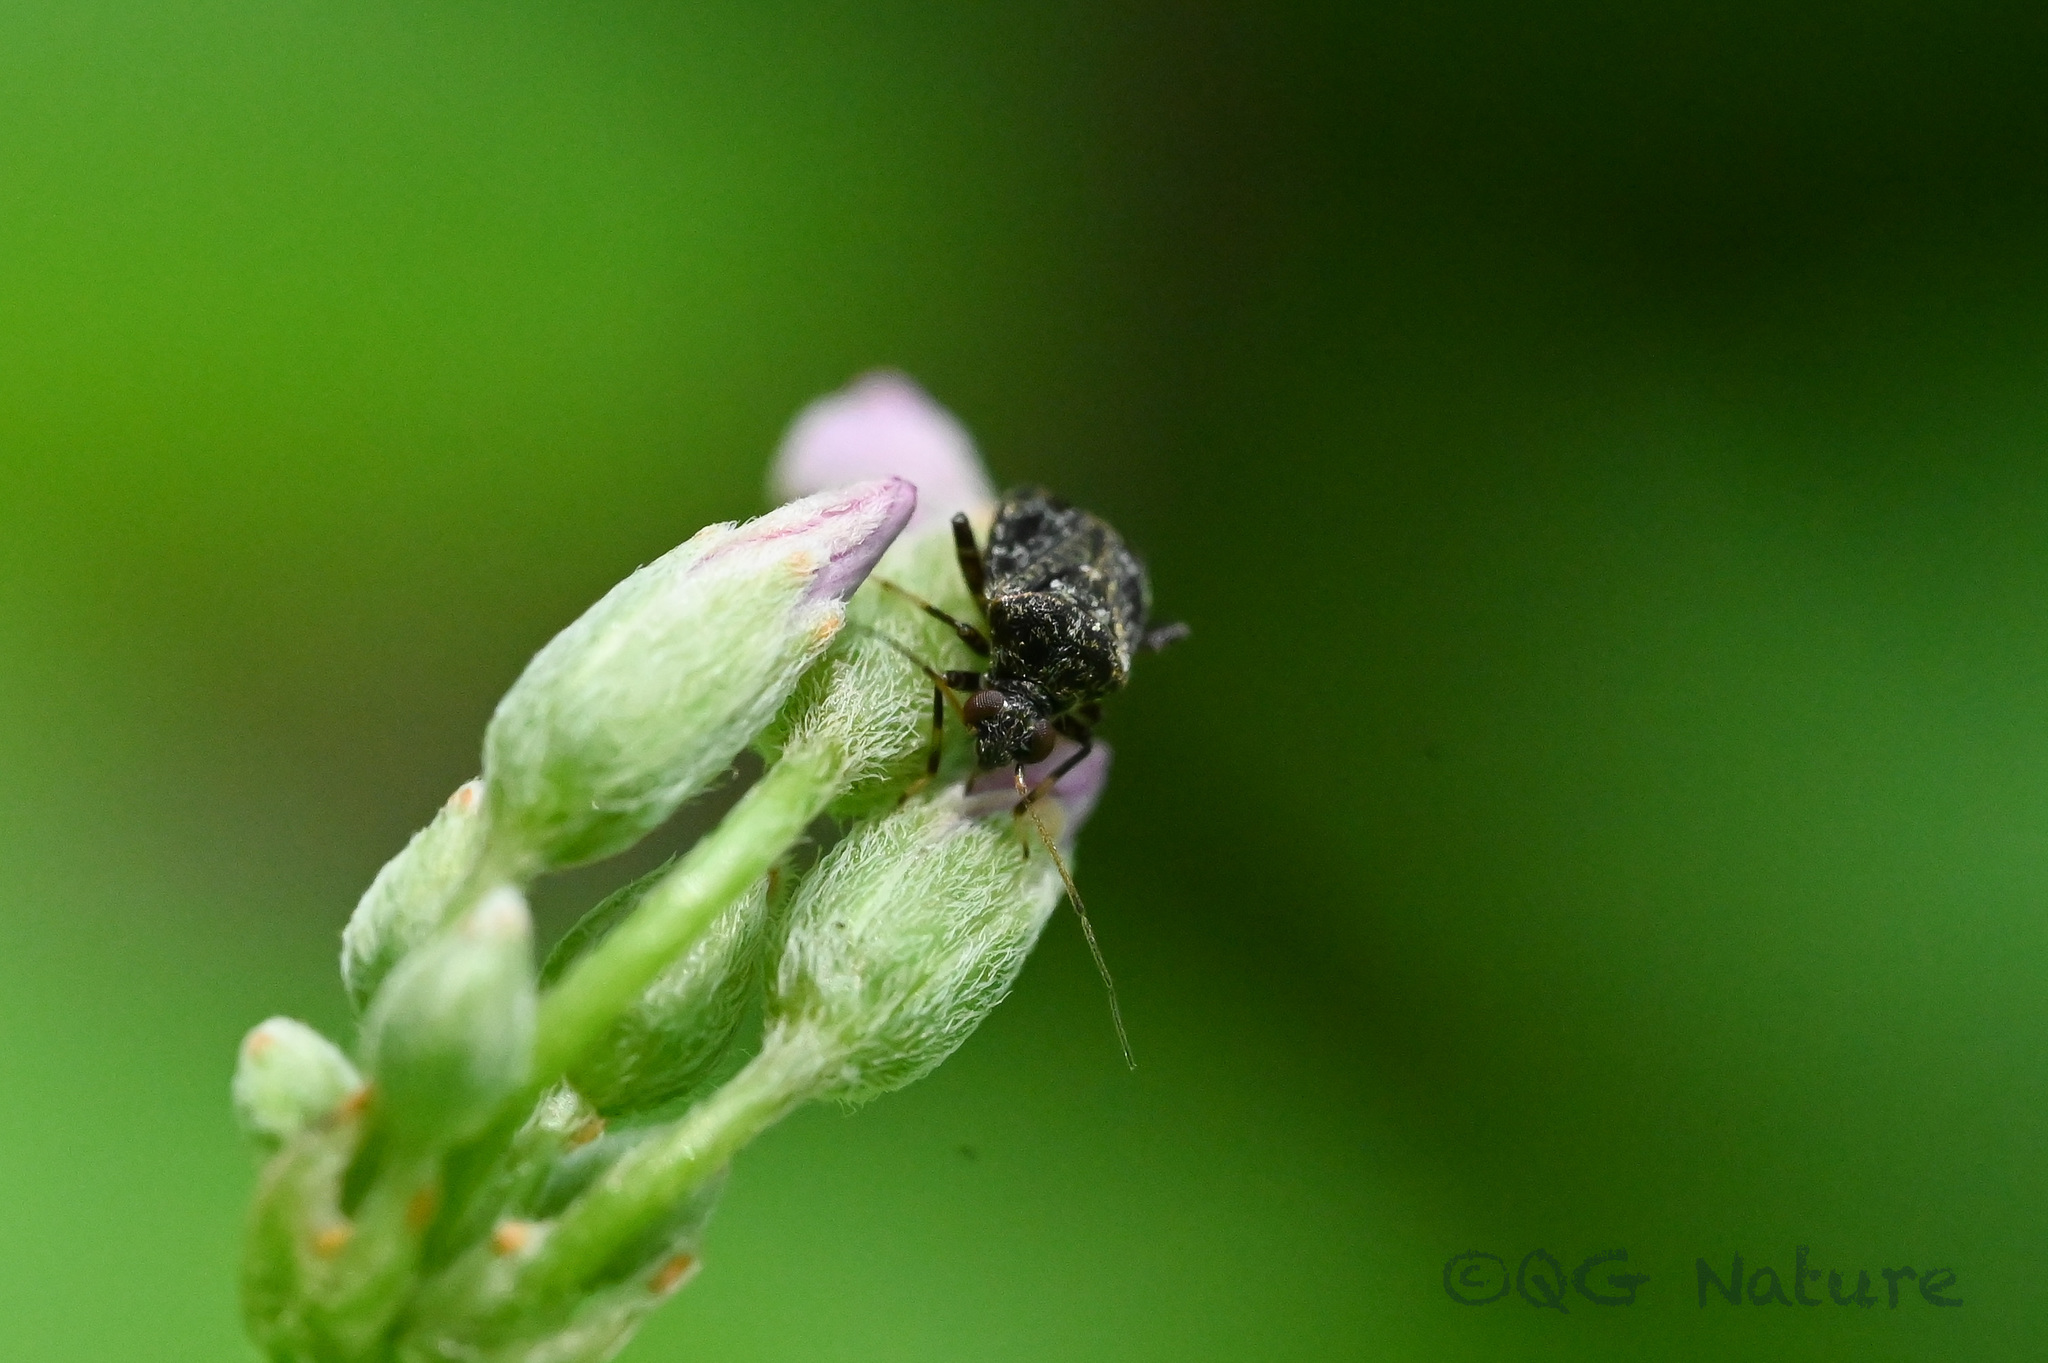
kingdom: Animalia
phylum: Arthropoda
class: Insecta
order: Hemiptera
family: Miridae
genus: Charagochilus
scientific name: Charagochilus angusticollis
